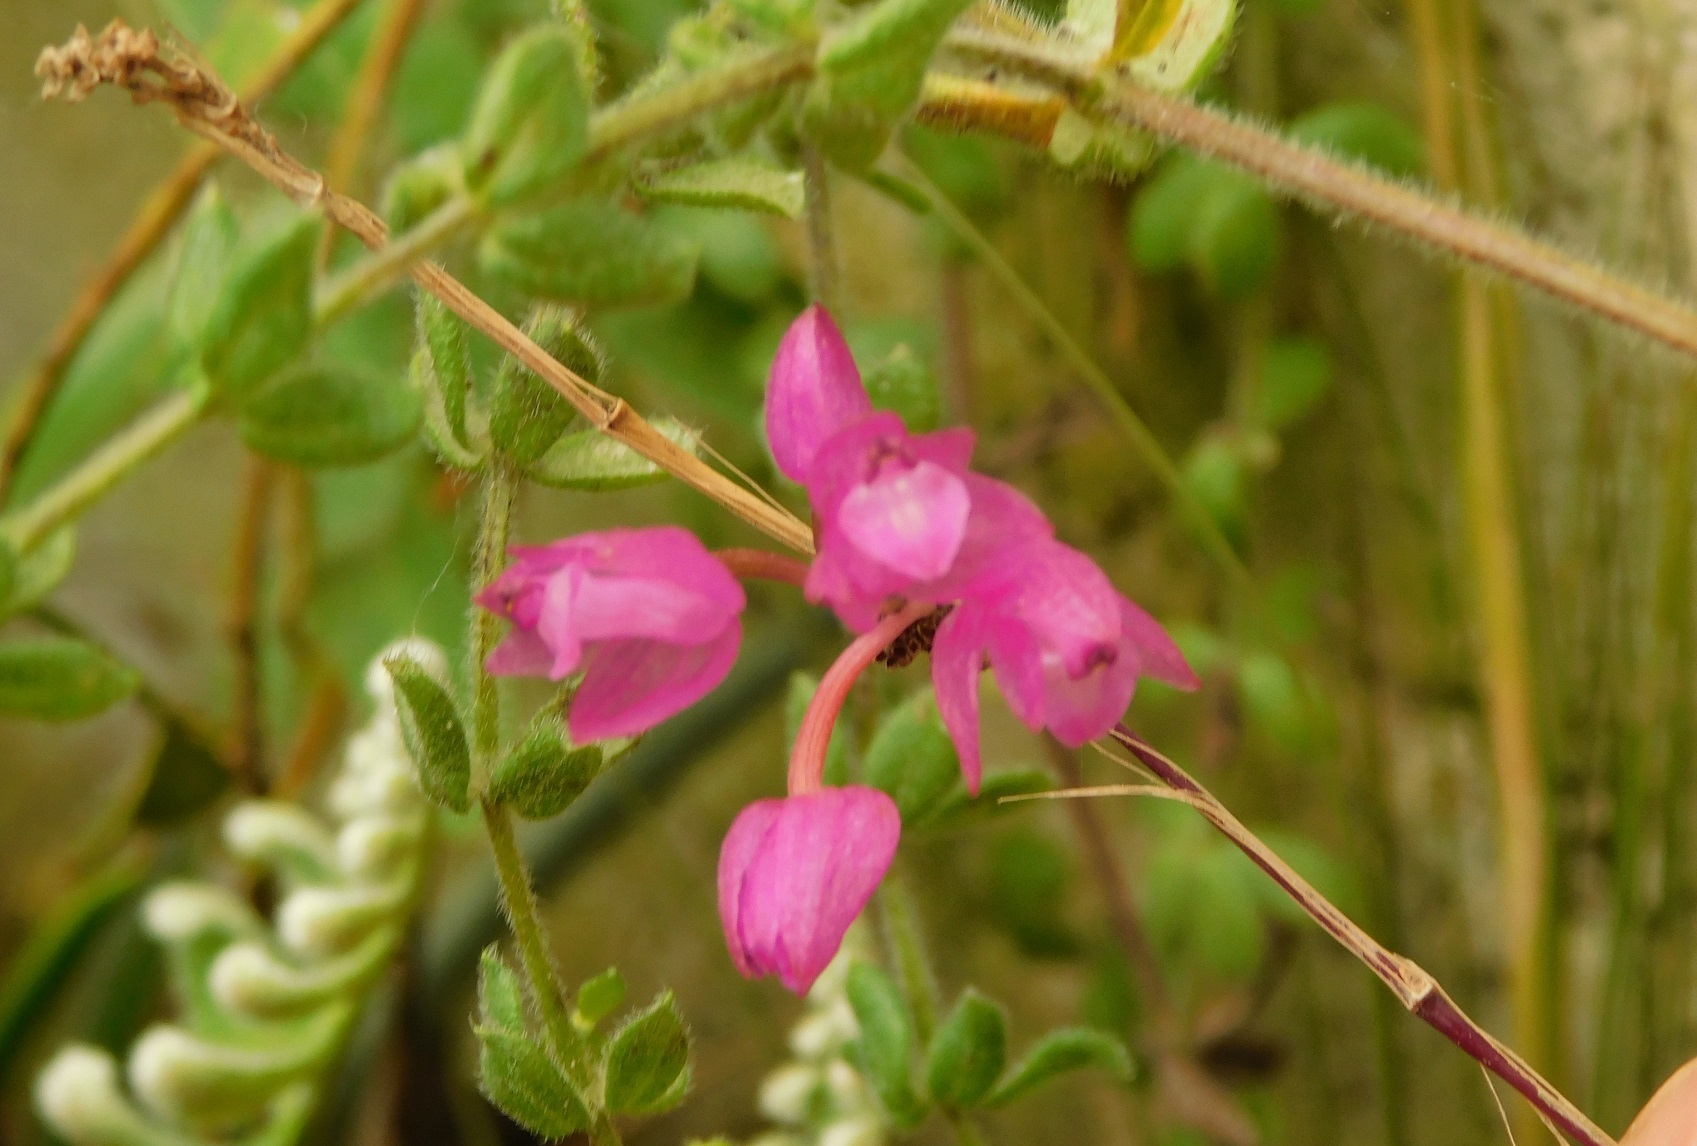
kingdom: Plantae
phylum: Tracheophyta
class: Liliopsida
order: Asparagales
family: Orchidaceae
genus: Domingoa
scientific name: Domingoa purpurea
